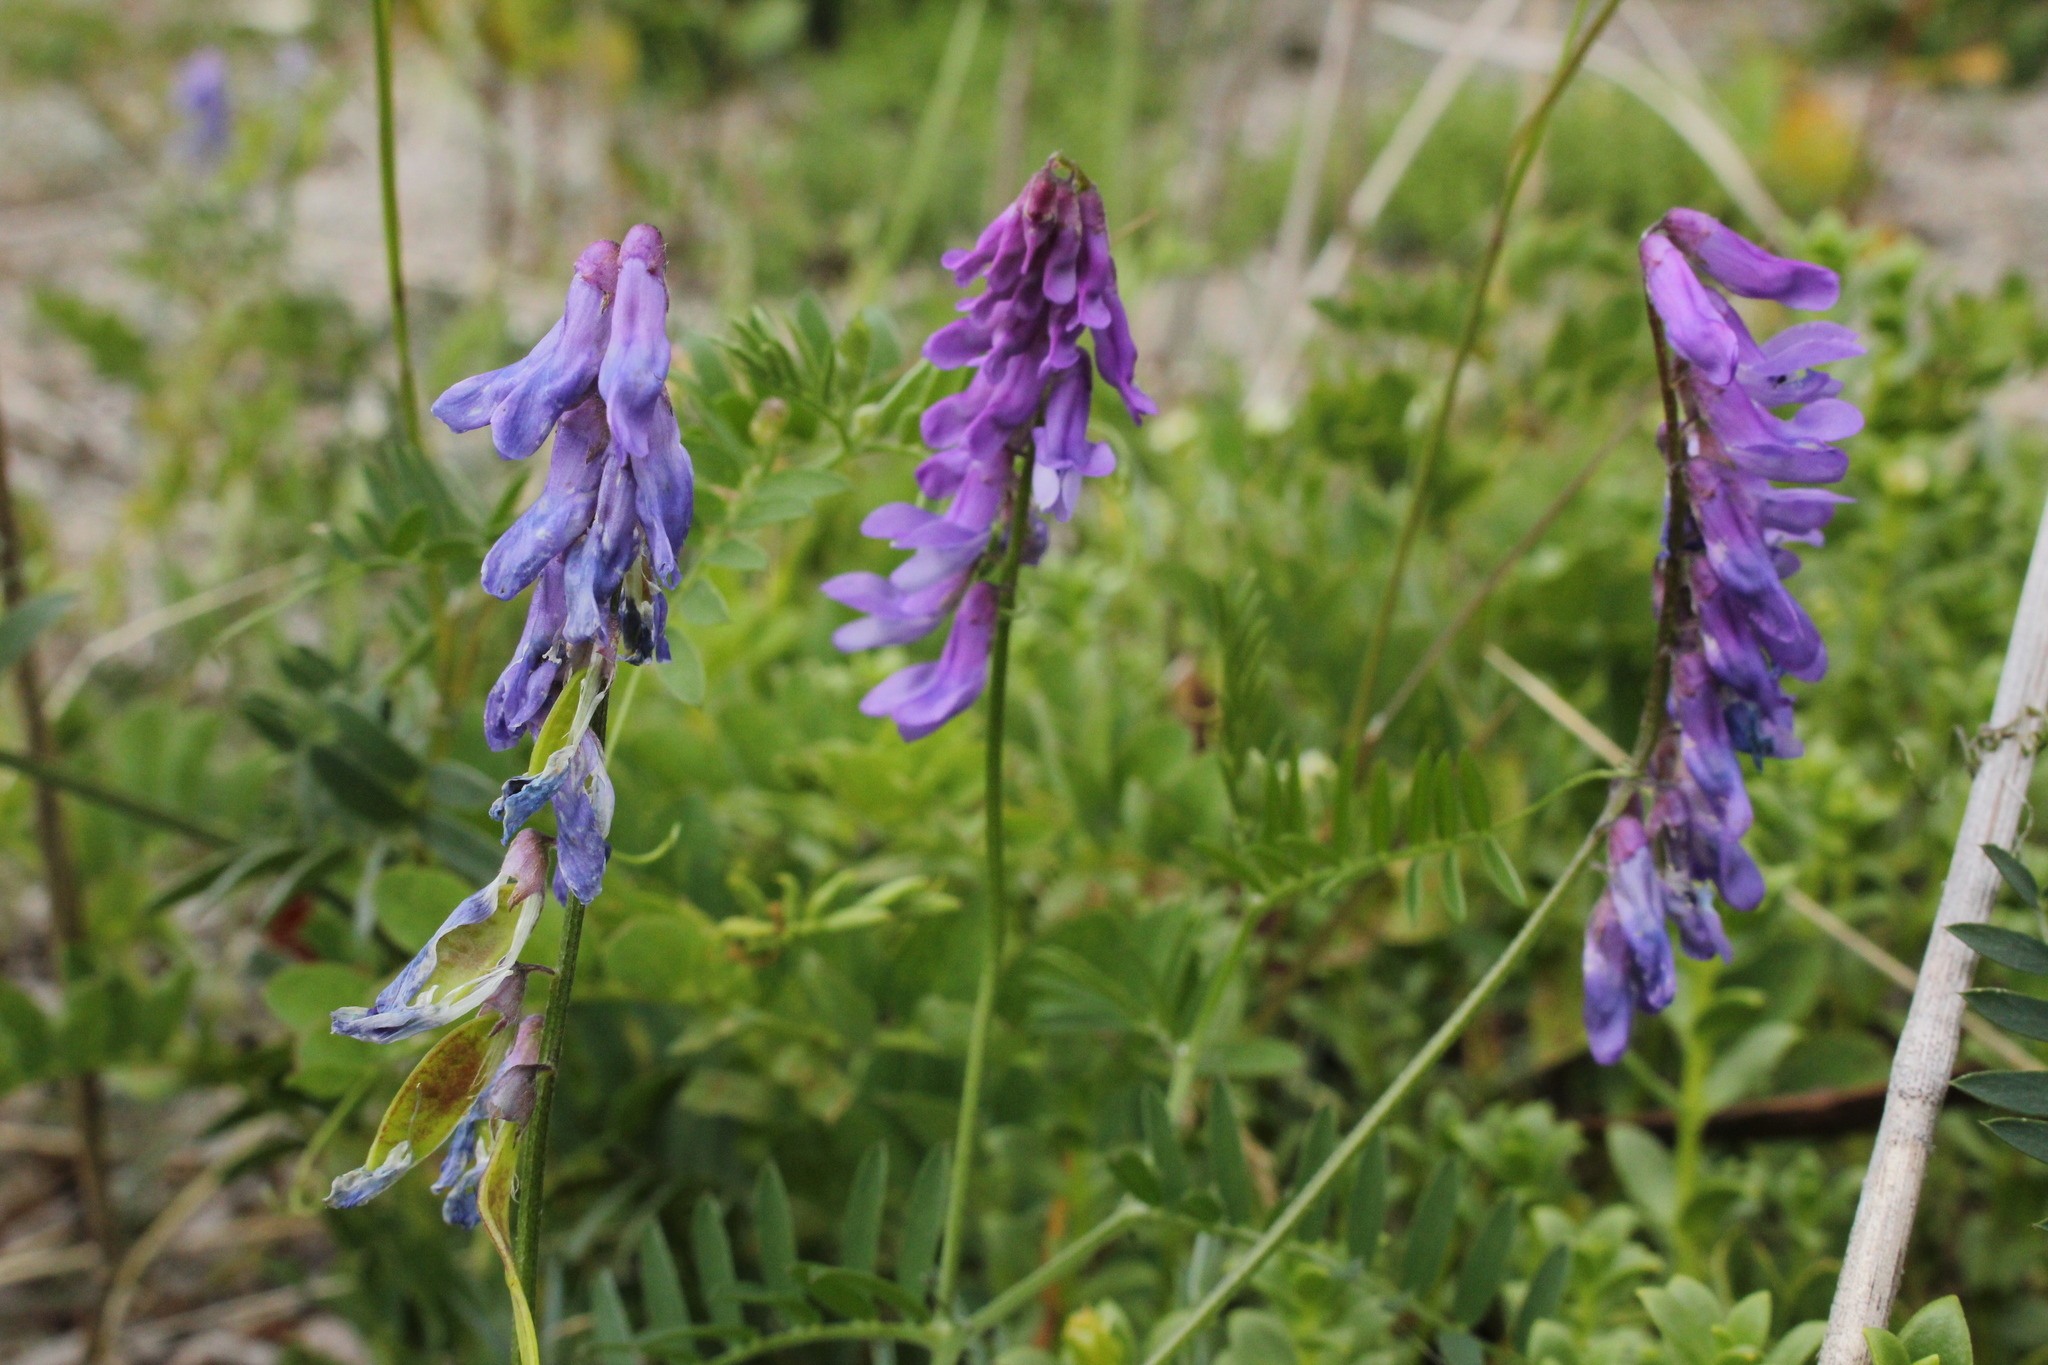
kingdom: Plantae
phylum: Tracheophyta
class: Magnoliopsida
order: Fabales
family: Fabaceae
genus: Vicia
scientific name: Vicia cracca
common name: Bird vetch
